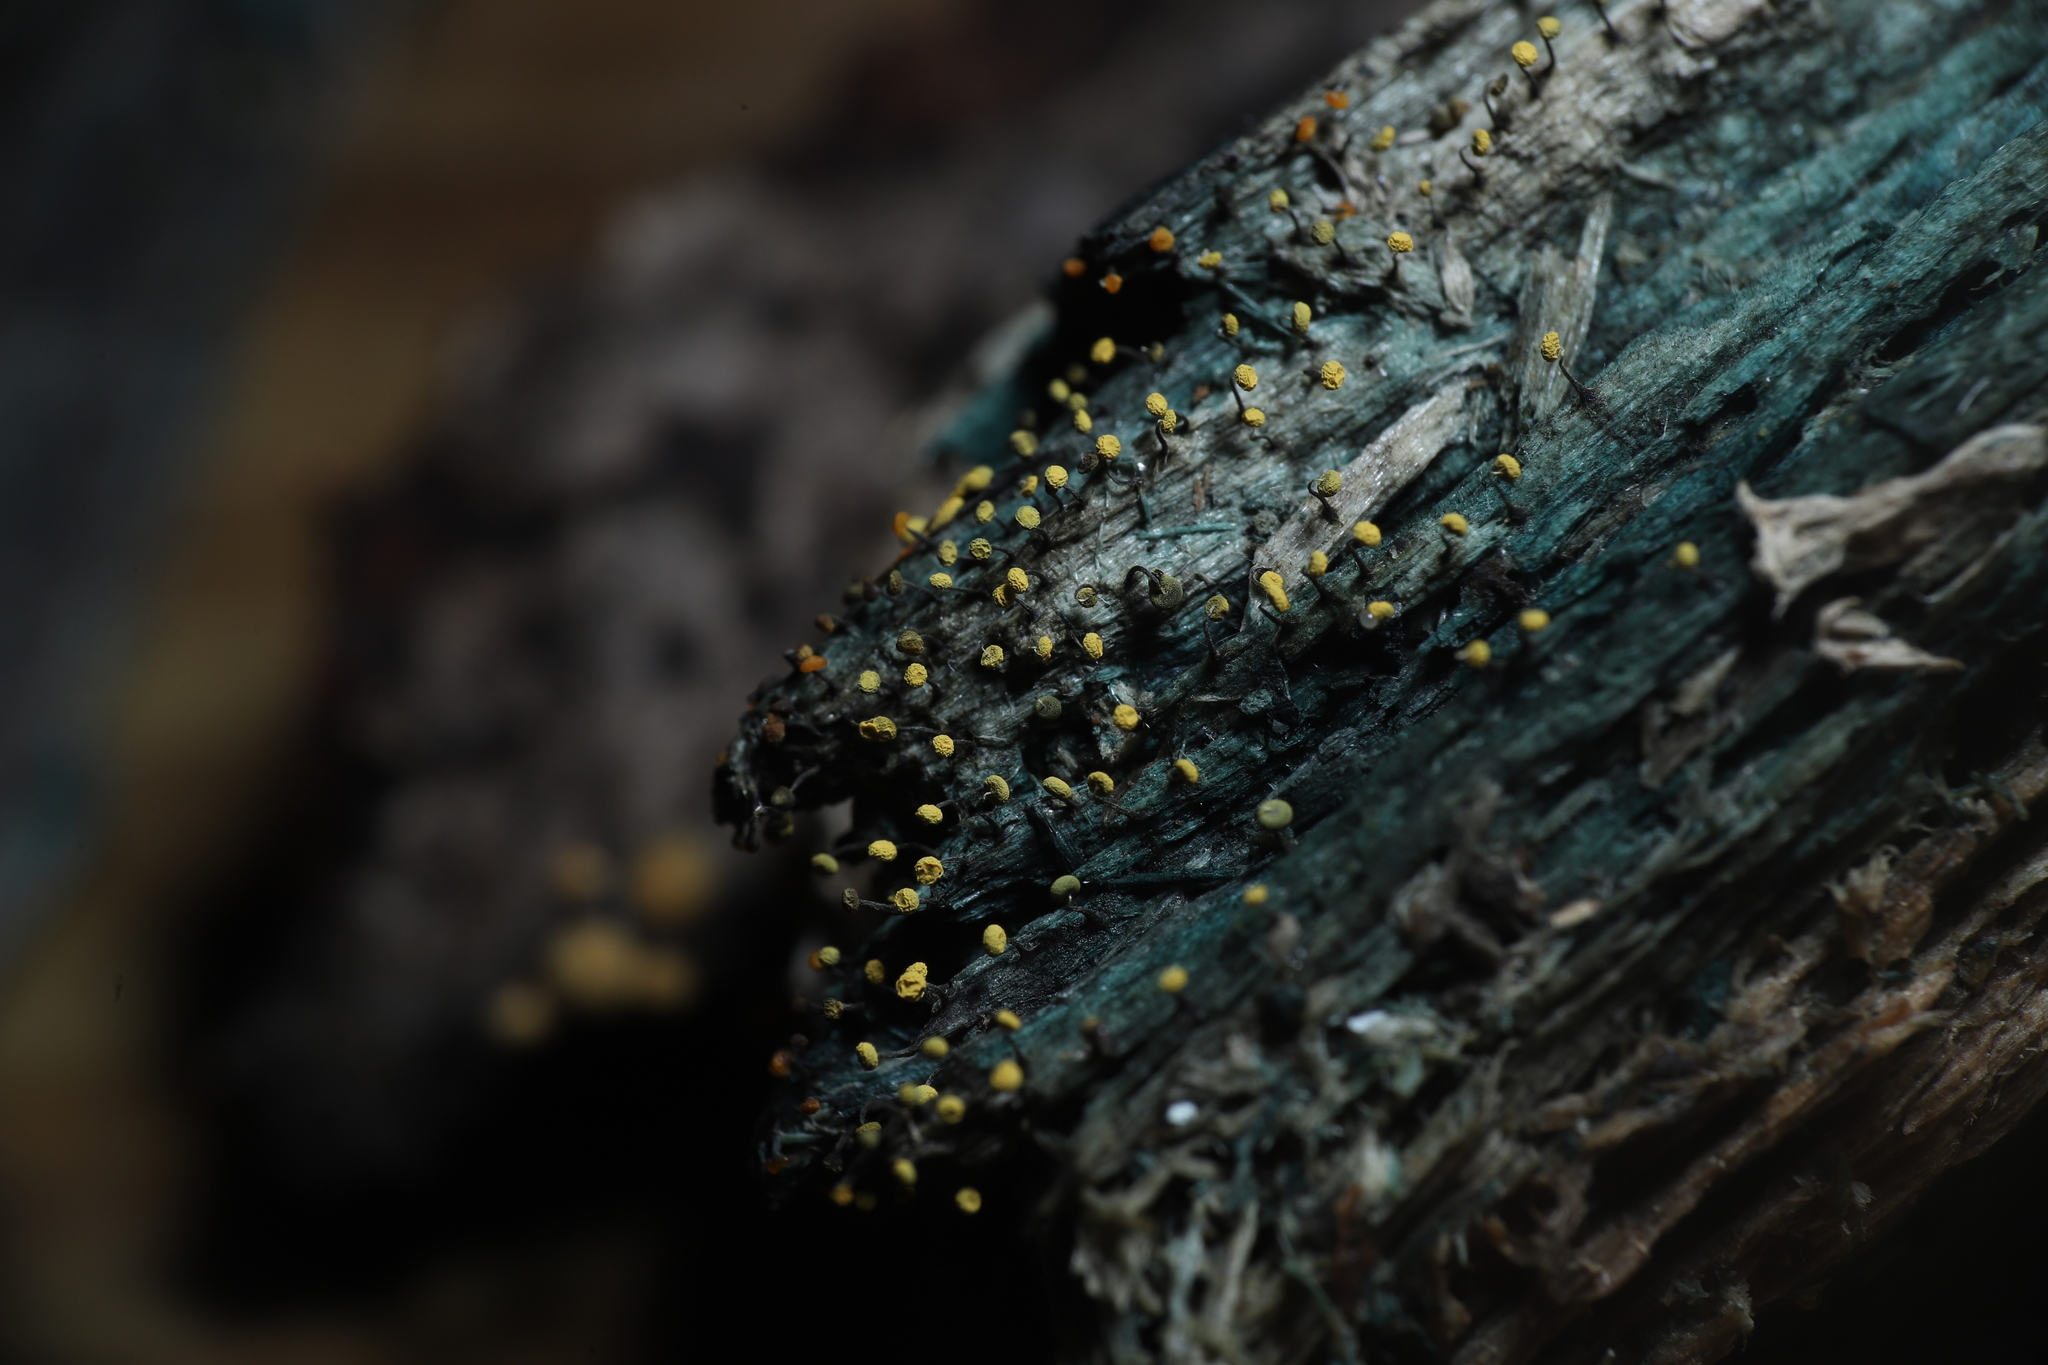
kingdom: Protozoa
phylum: Mycetozoa
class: Myxomycetes
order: Physarales
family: Physaraceae
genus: Physarum
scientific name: Physarum viride
